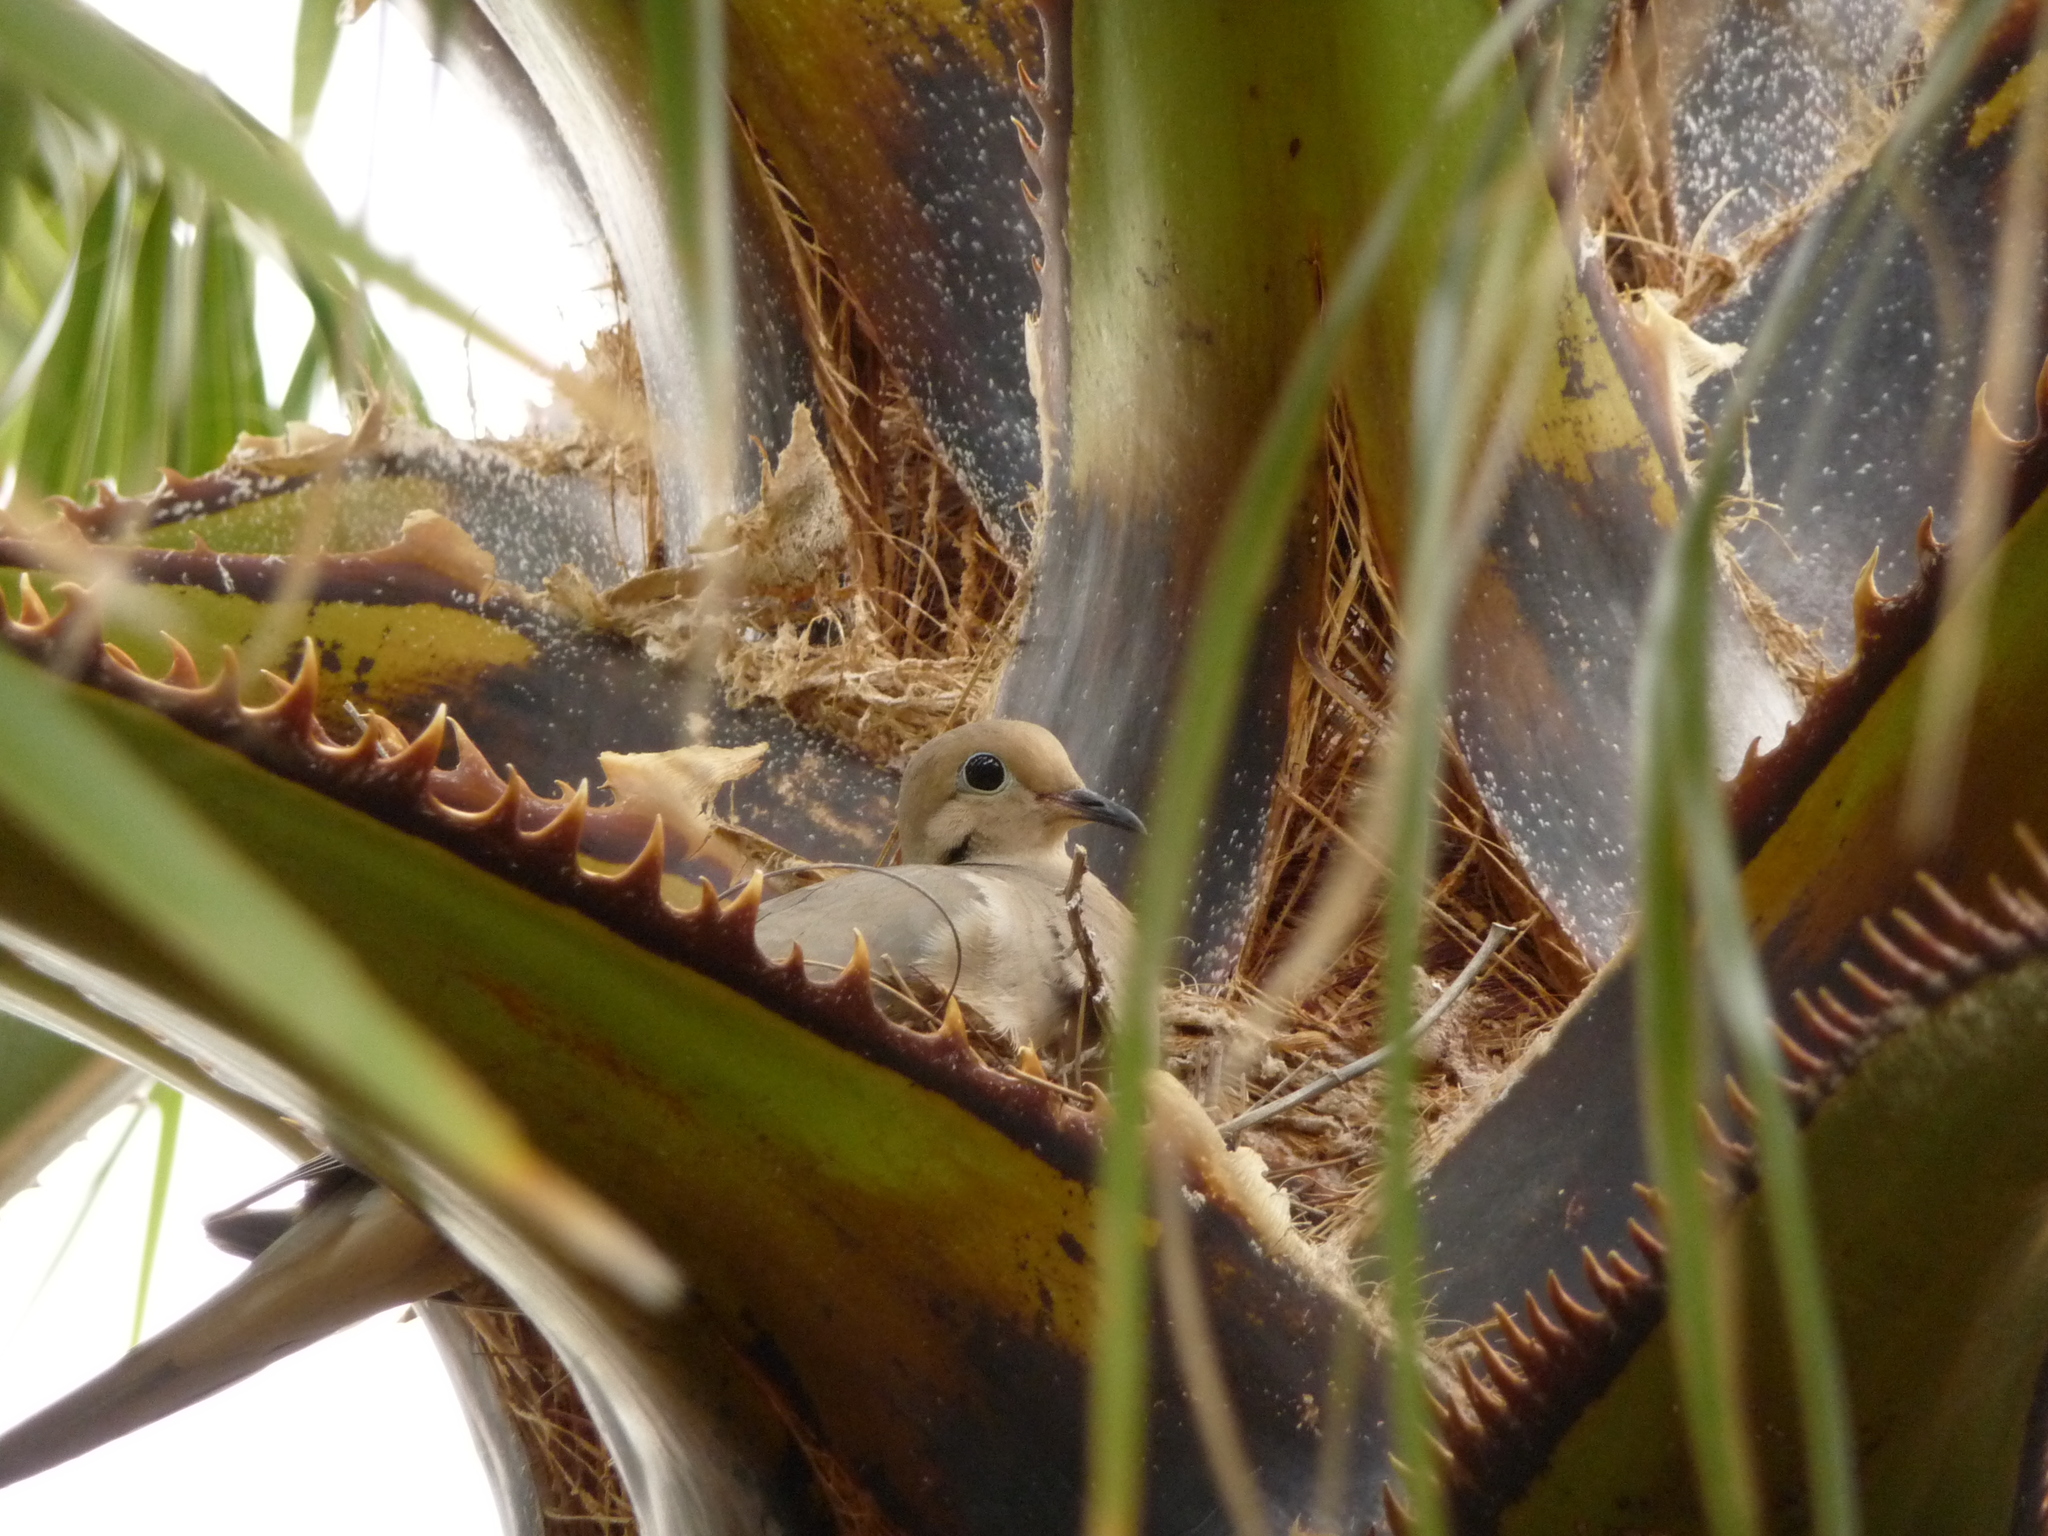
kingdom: Animalia
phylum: Chordata
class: Aves
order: Columbiformes
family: Columbidae
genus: Zenaida
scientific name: Zenaida macroura
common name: Mourning dove
